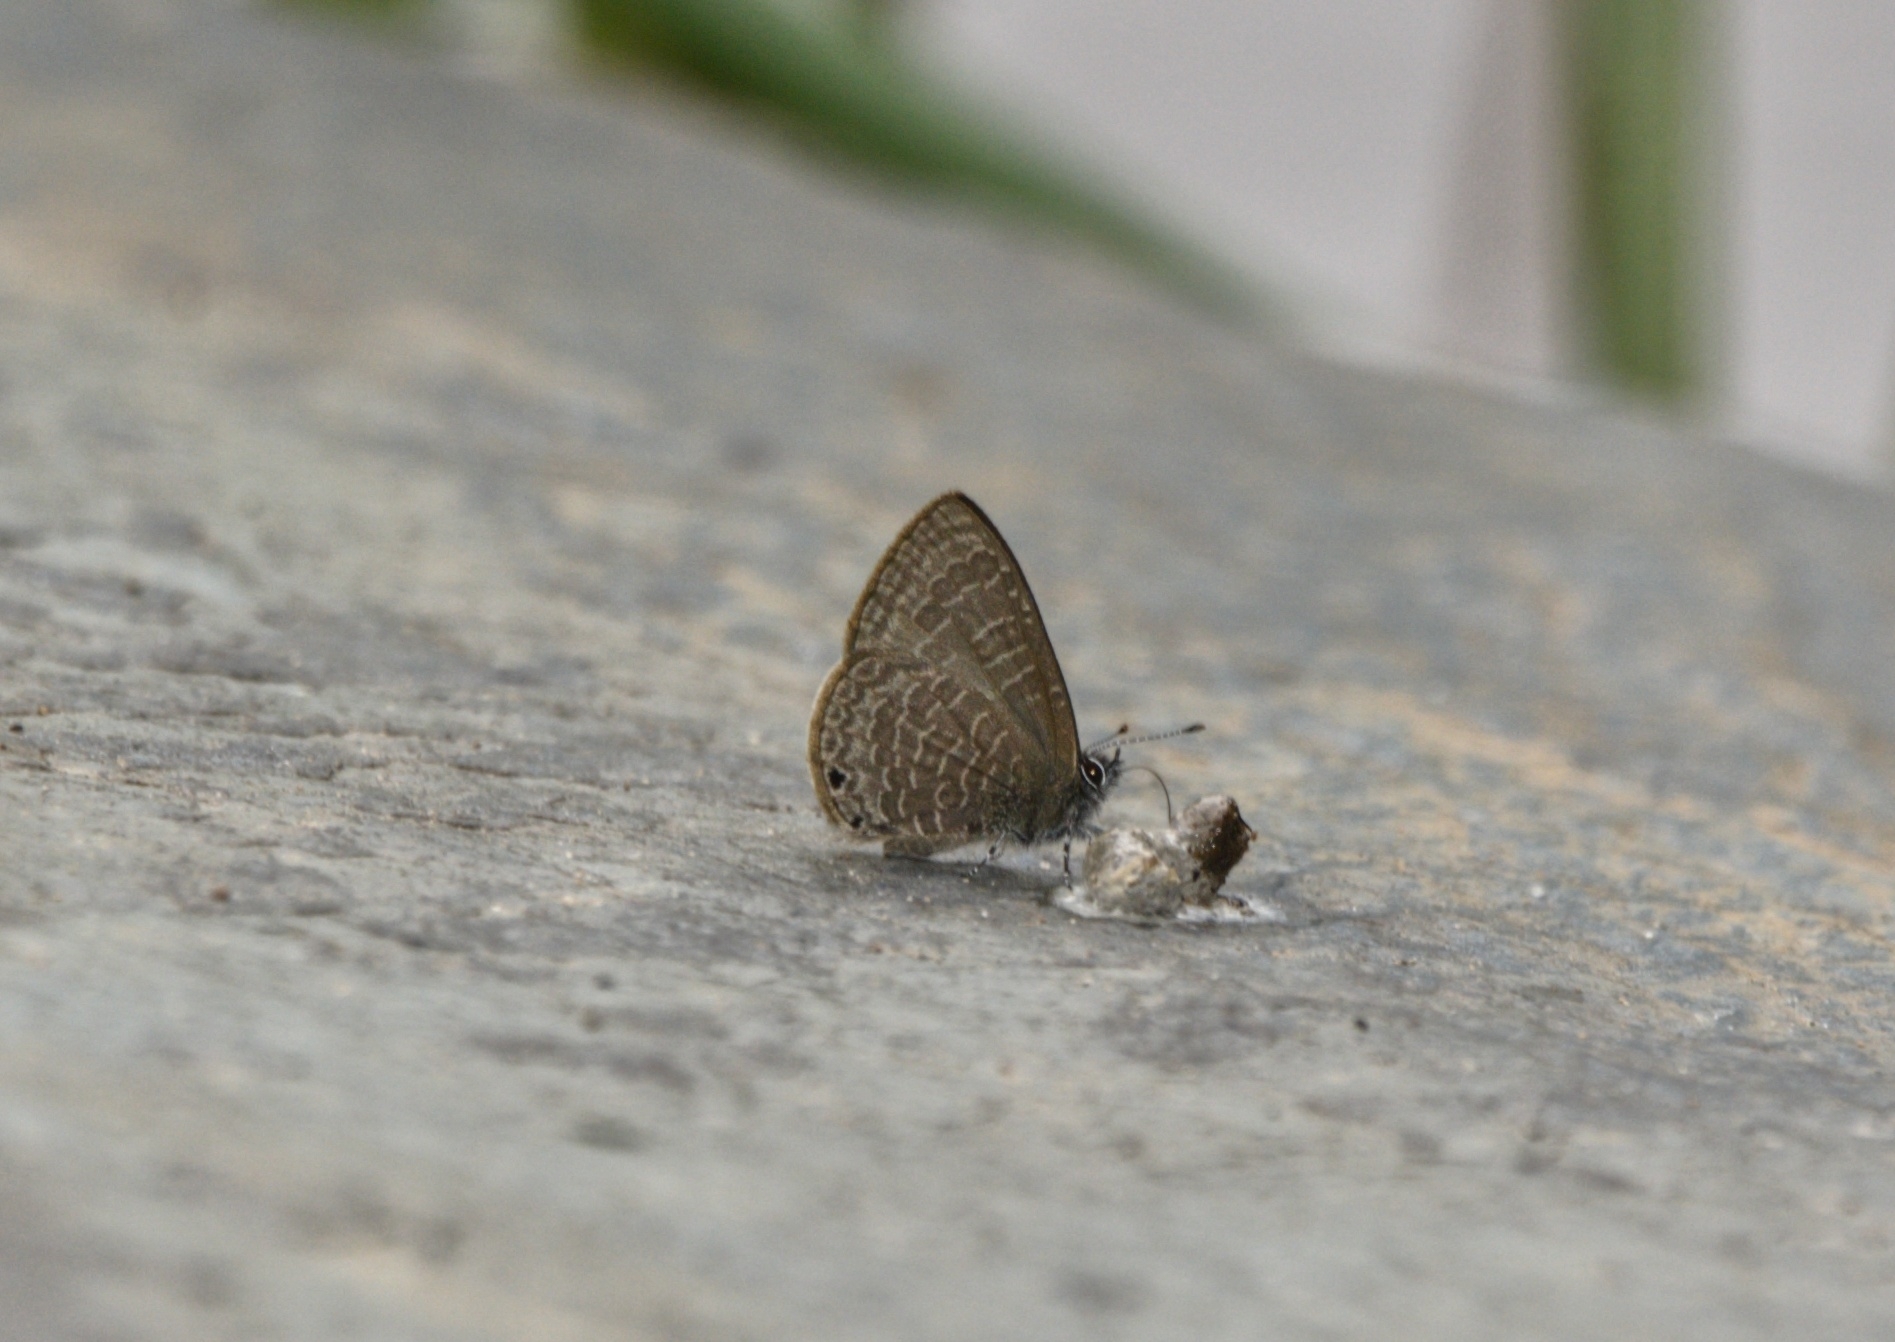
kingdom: Animalia
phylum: Arthropoda
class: Insecta
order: Lepidoptera
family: Lycaenidae
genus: Prosotas
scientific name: Prosotas dubiosa
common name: Tailless lineblue
